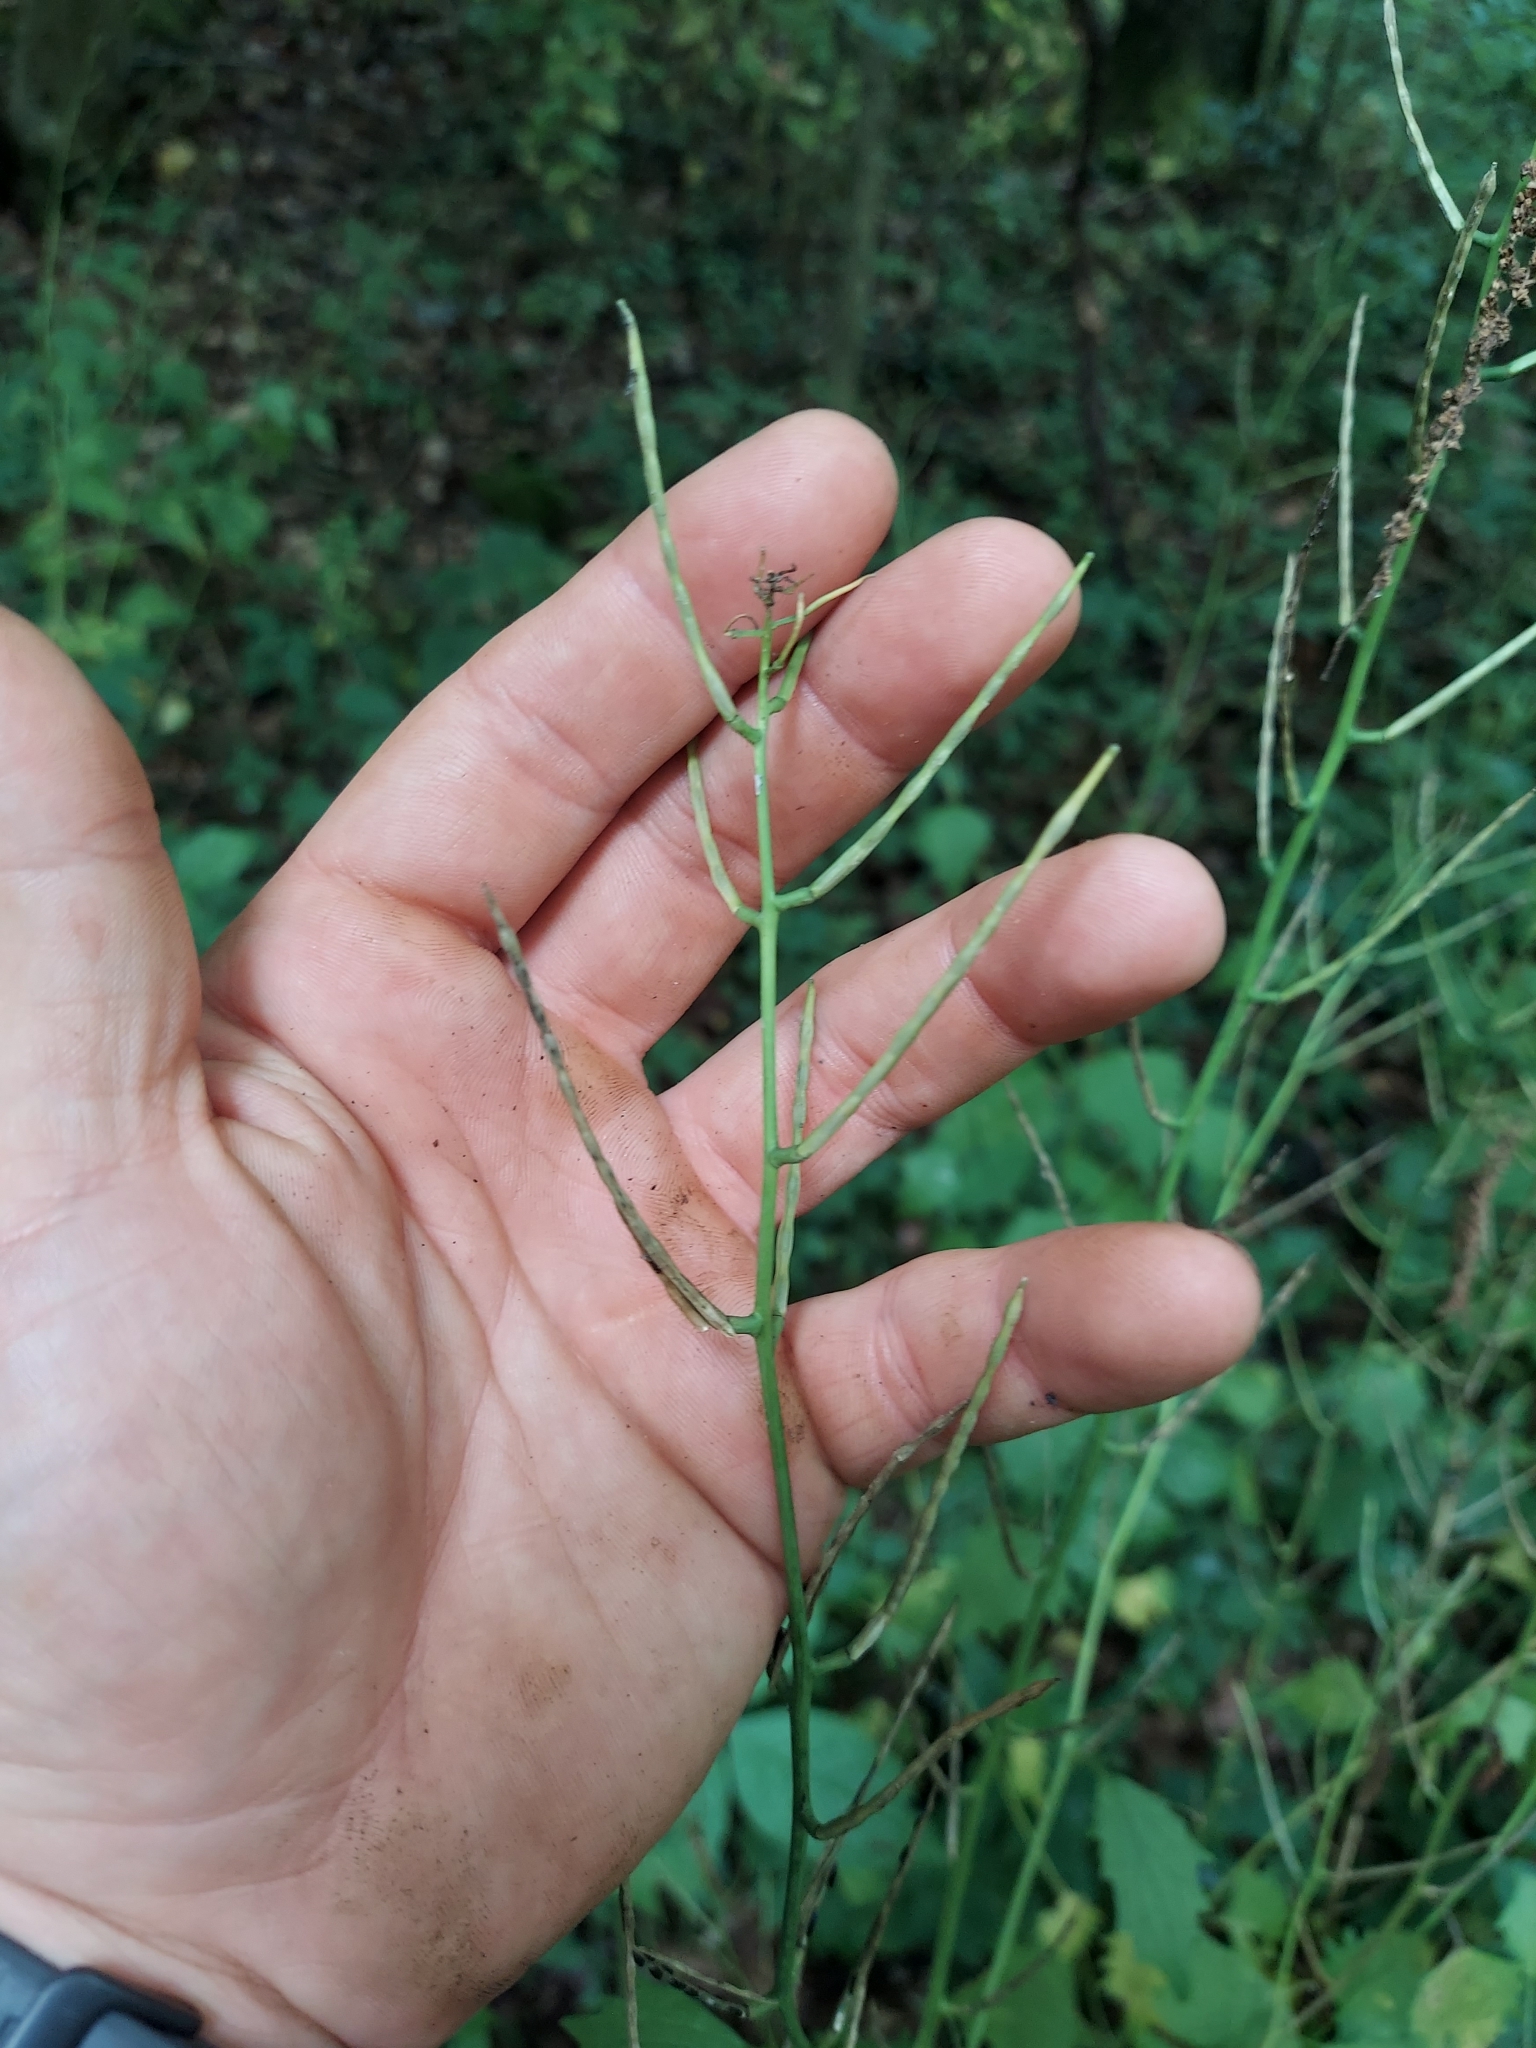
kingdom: Plantae
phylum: Tracheophyta
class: Magnoliopsida
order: Brassicales
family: Brassicaceae
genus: Alliaria
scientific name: Alliaria petiolata
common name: Garlic mustard
